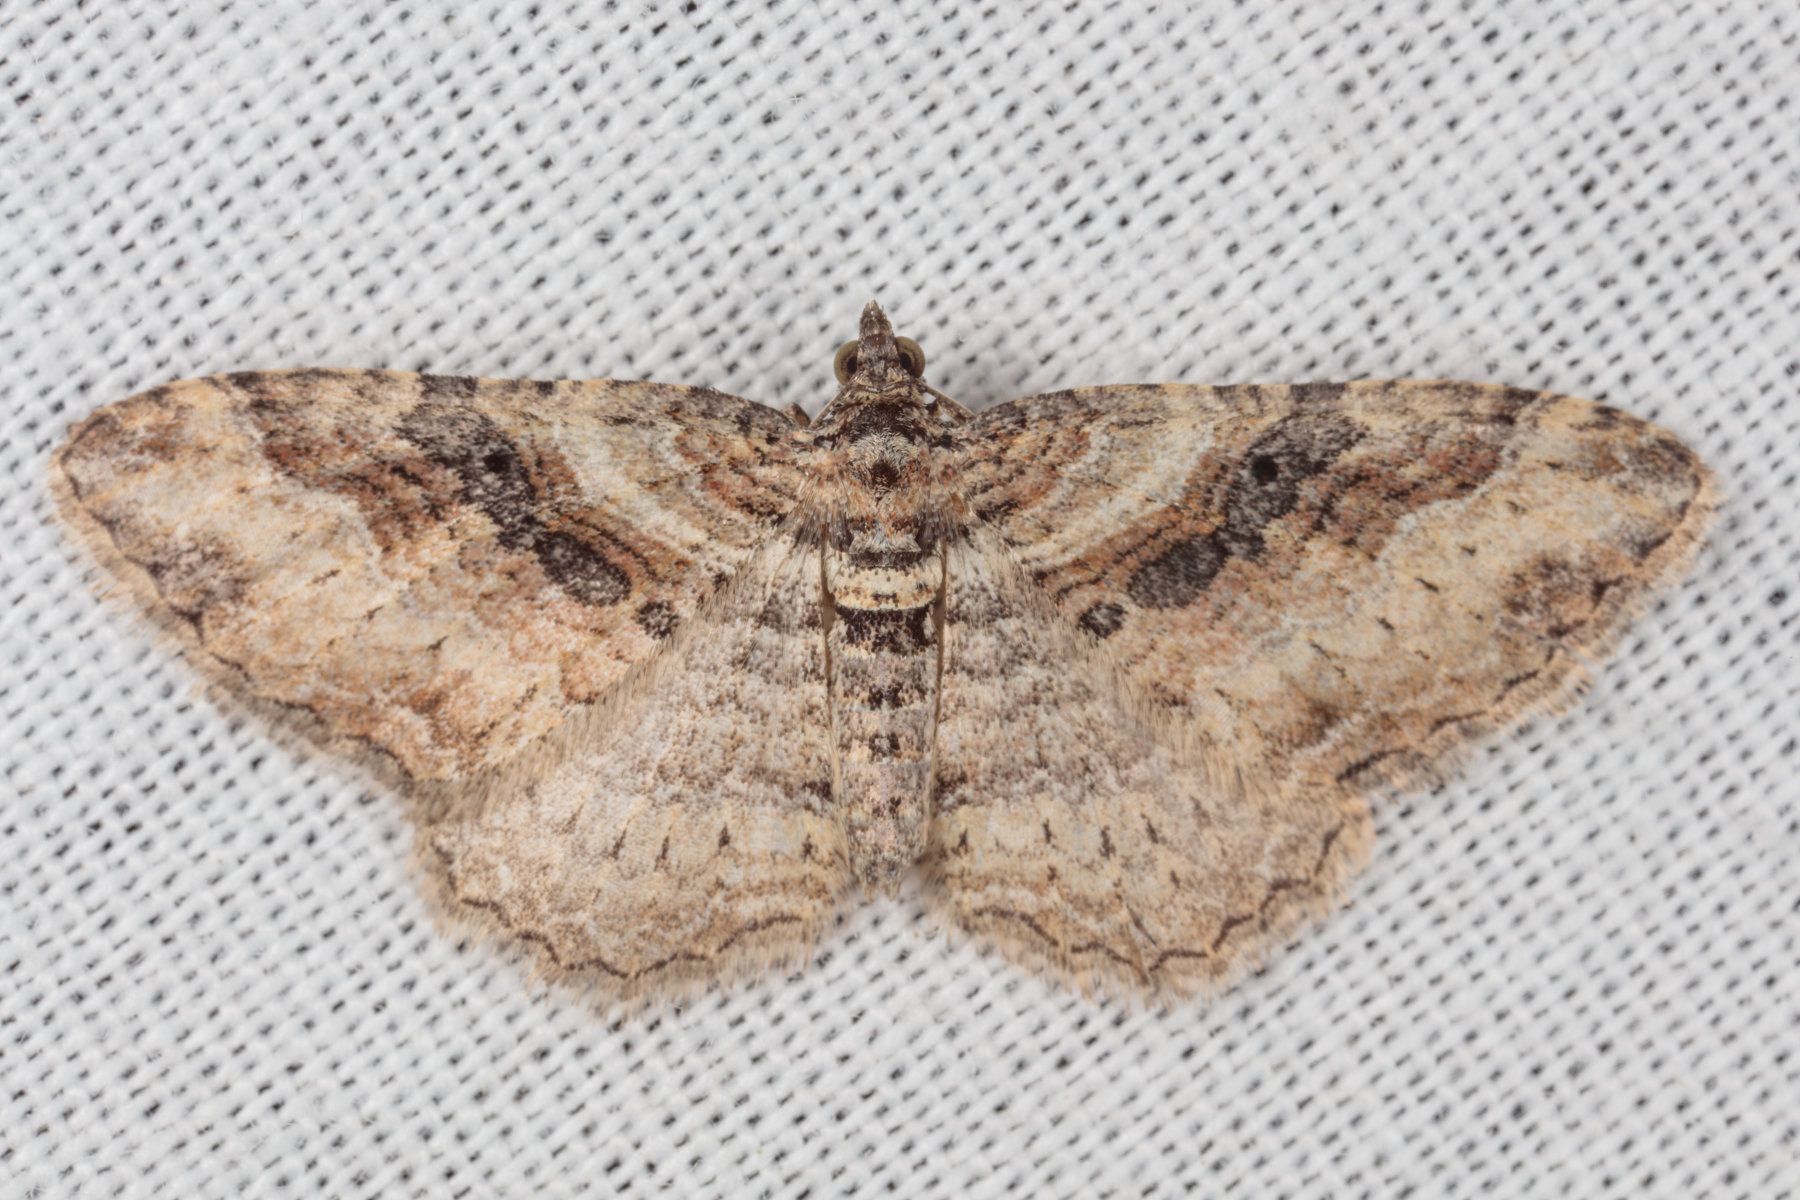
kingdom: Animalia
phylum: Arthropoda
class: Insecta
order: Lepidoptera
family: Geometridae
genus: Costaconvexa
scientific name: Costaconvexa centrostrigaria
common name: Bent-line carpet
